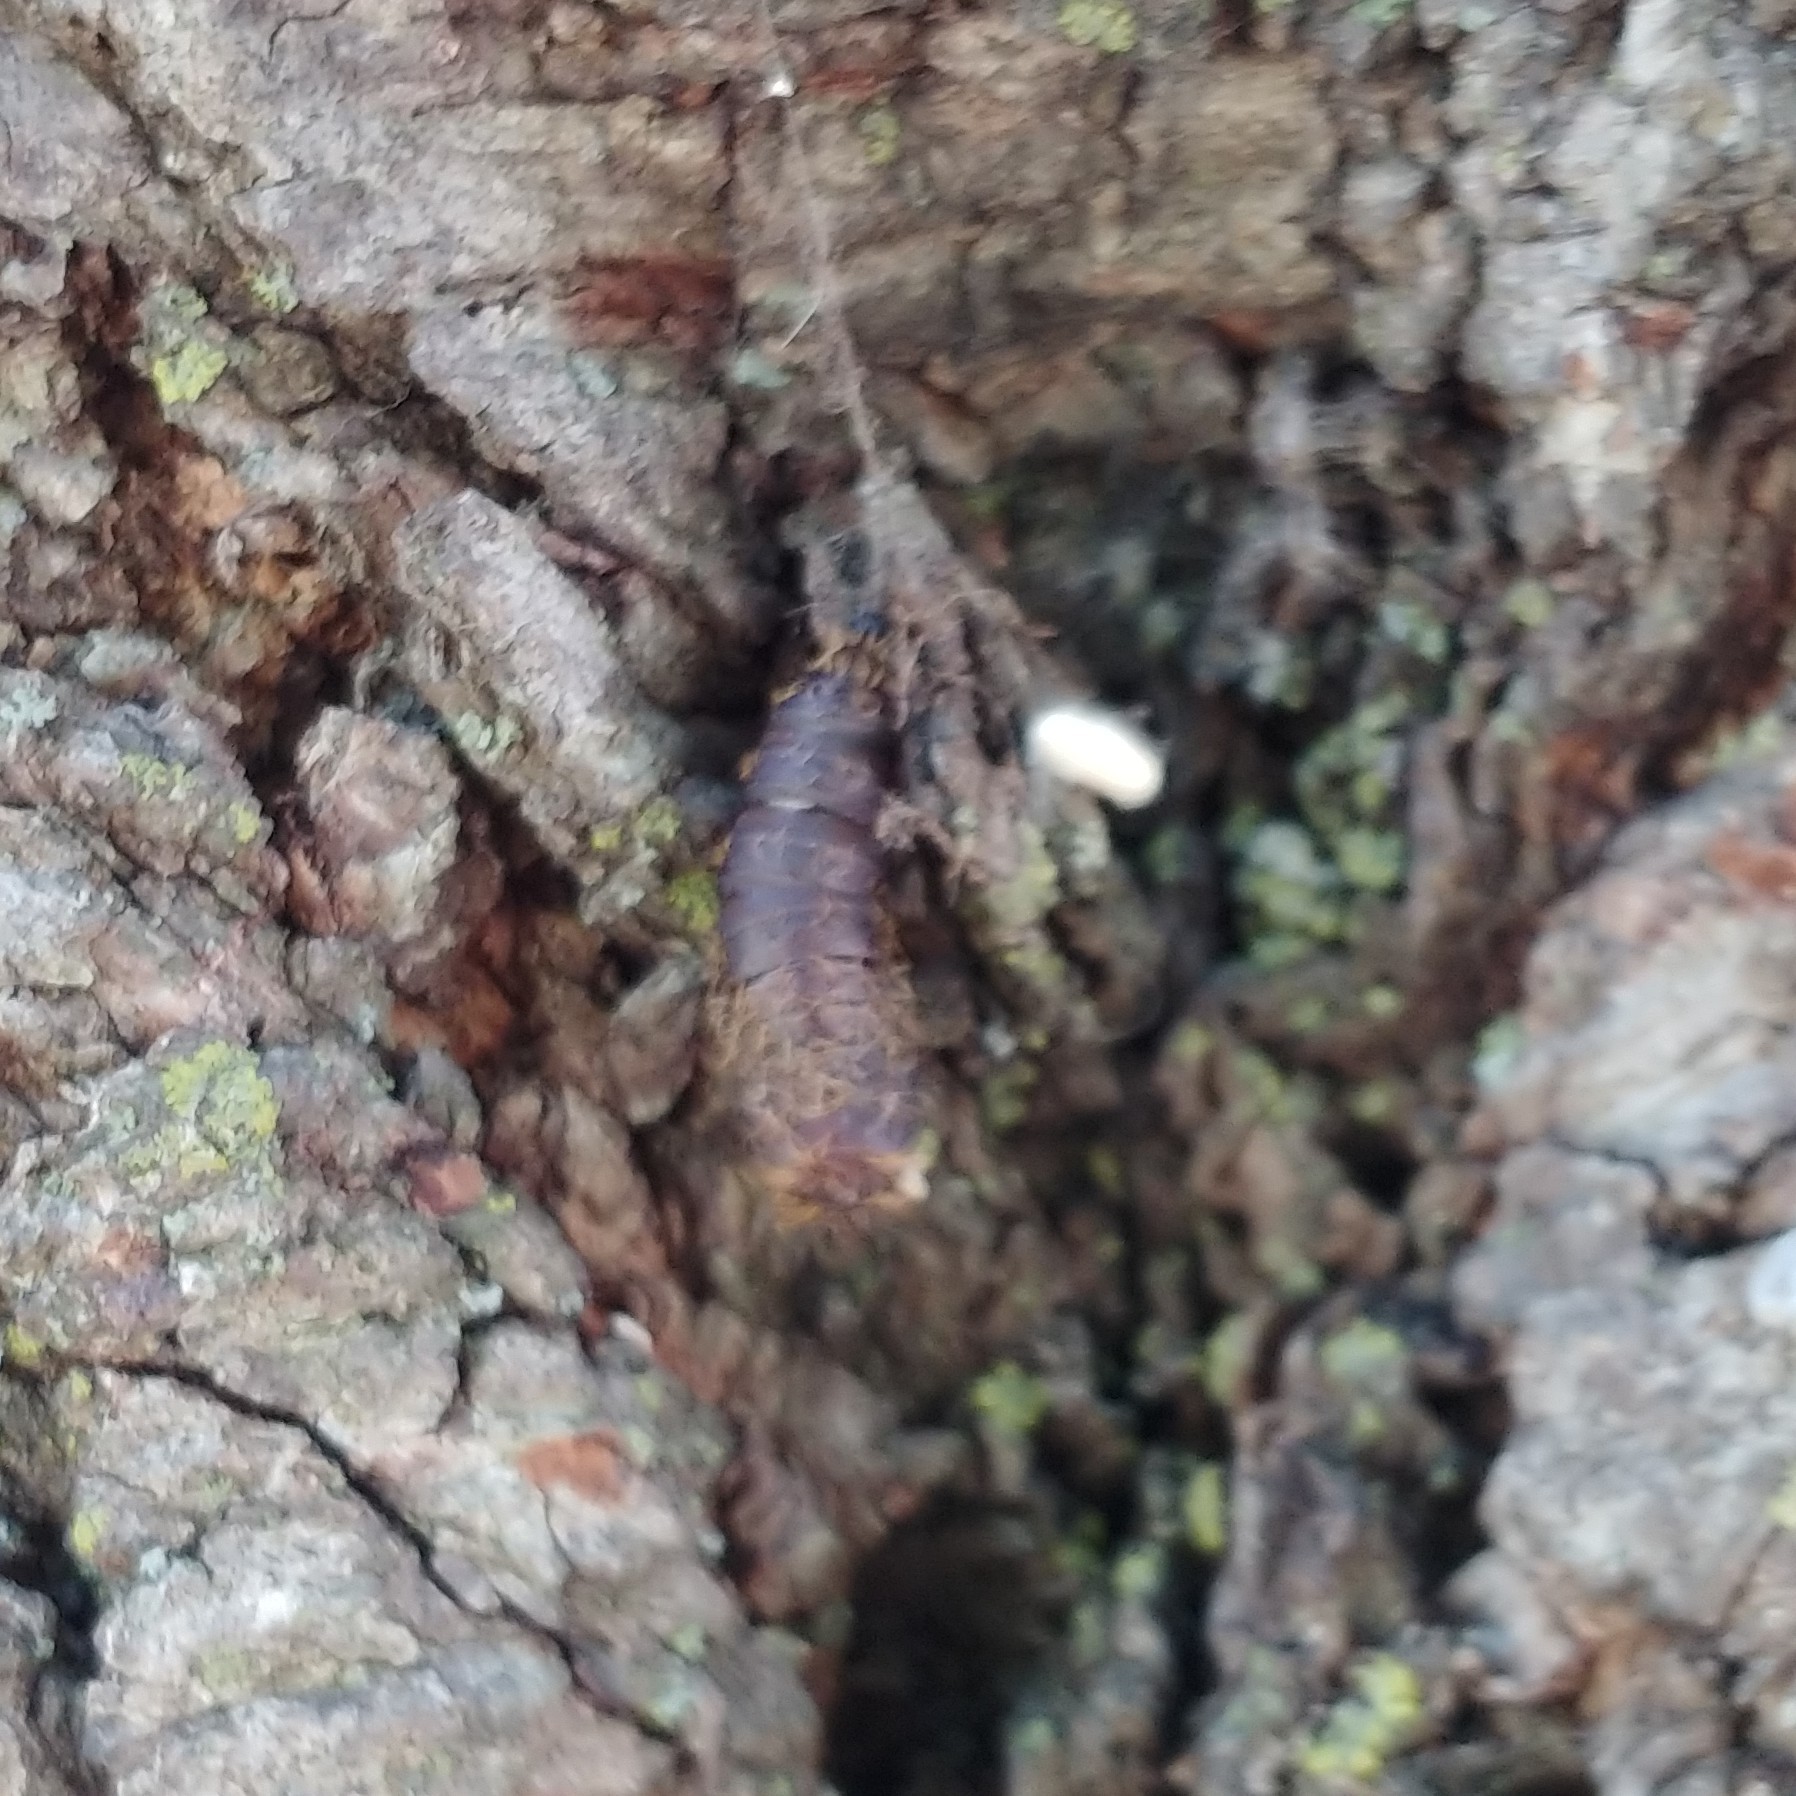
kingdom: Animalia
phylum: Arthropoda
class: Insecta
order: Lepidoptera
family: Erebidae
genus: Lymantria
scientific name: Lymantria dispar
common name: Gypsy moth
